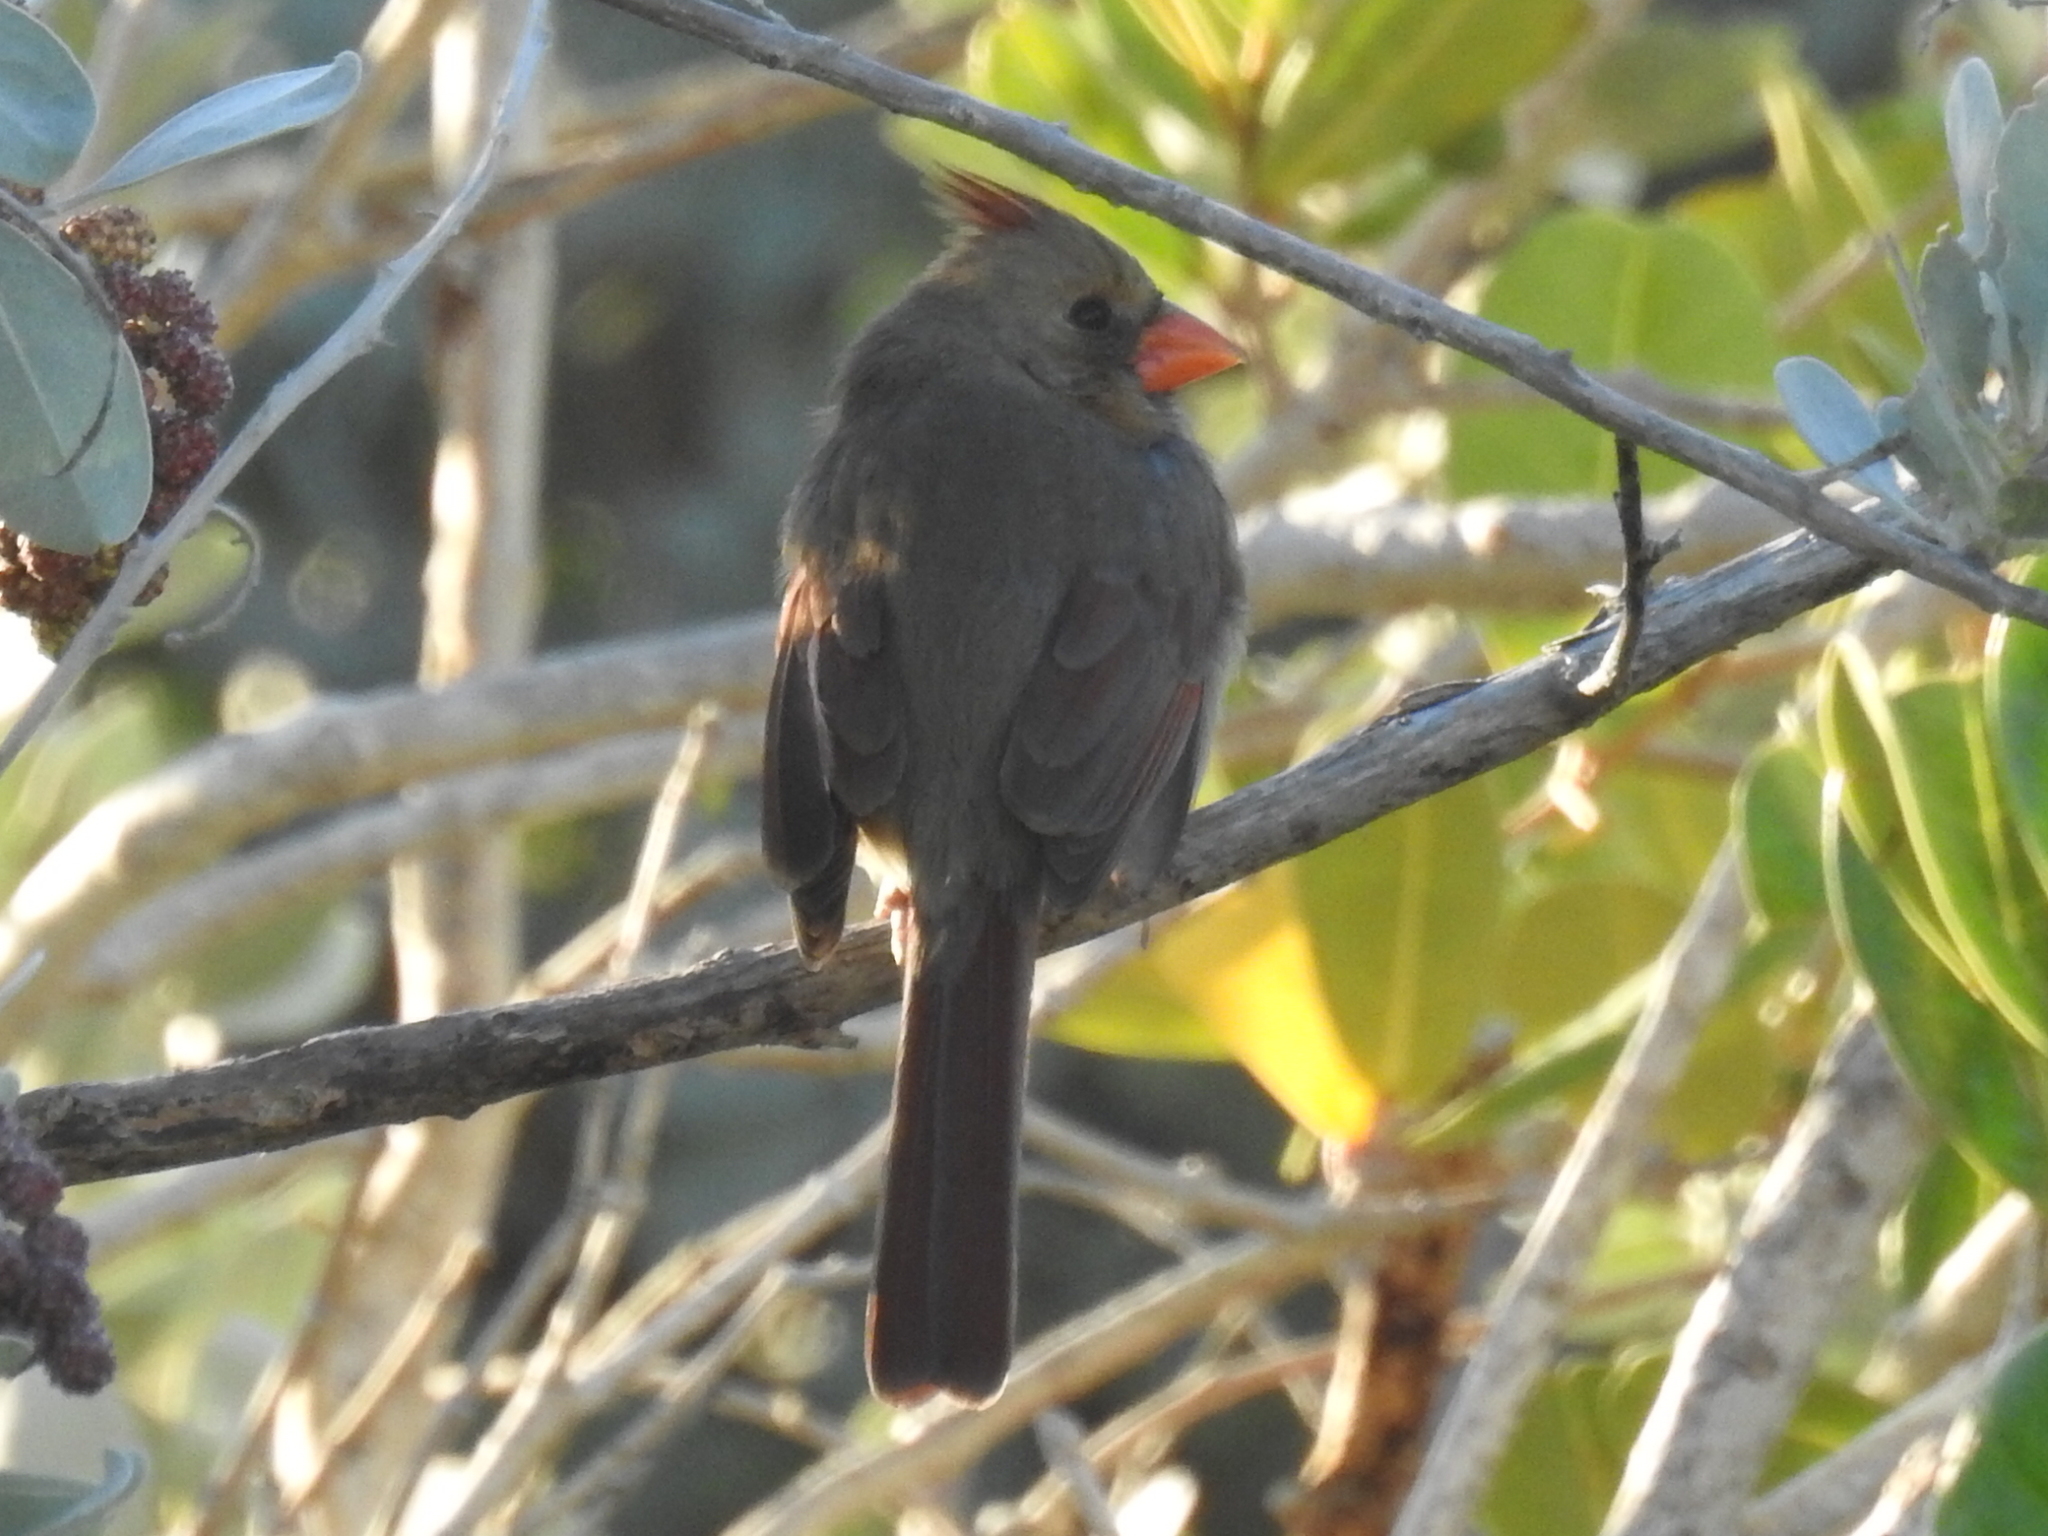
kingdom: Animalia
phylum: Chordata
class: Aves
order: Passeriformes
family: Cardinalidae
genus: Cardinalis
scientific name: Cardinalis cardinalis
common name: Northern cardinal
